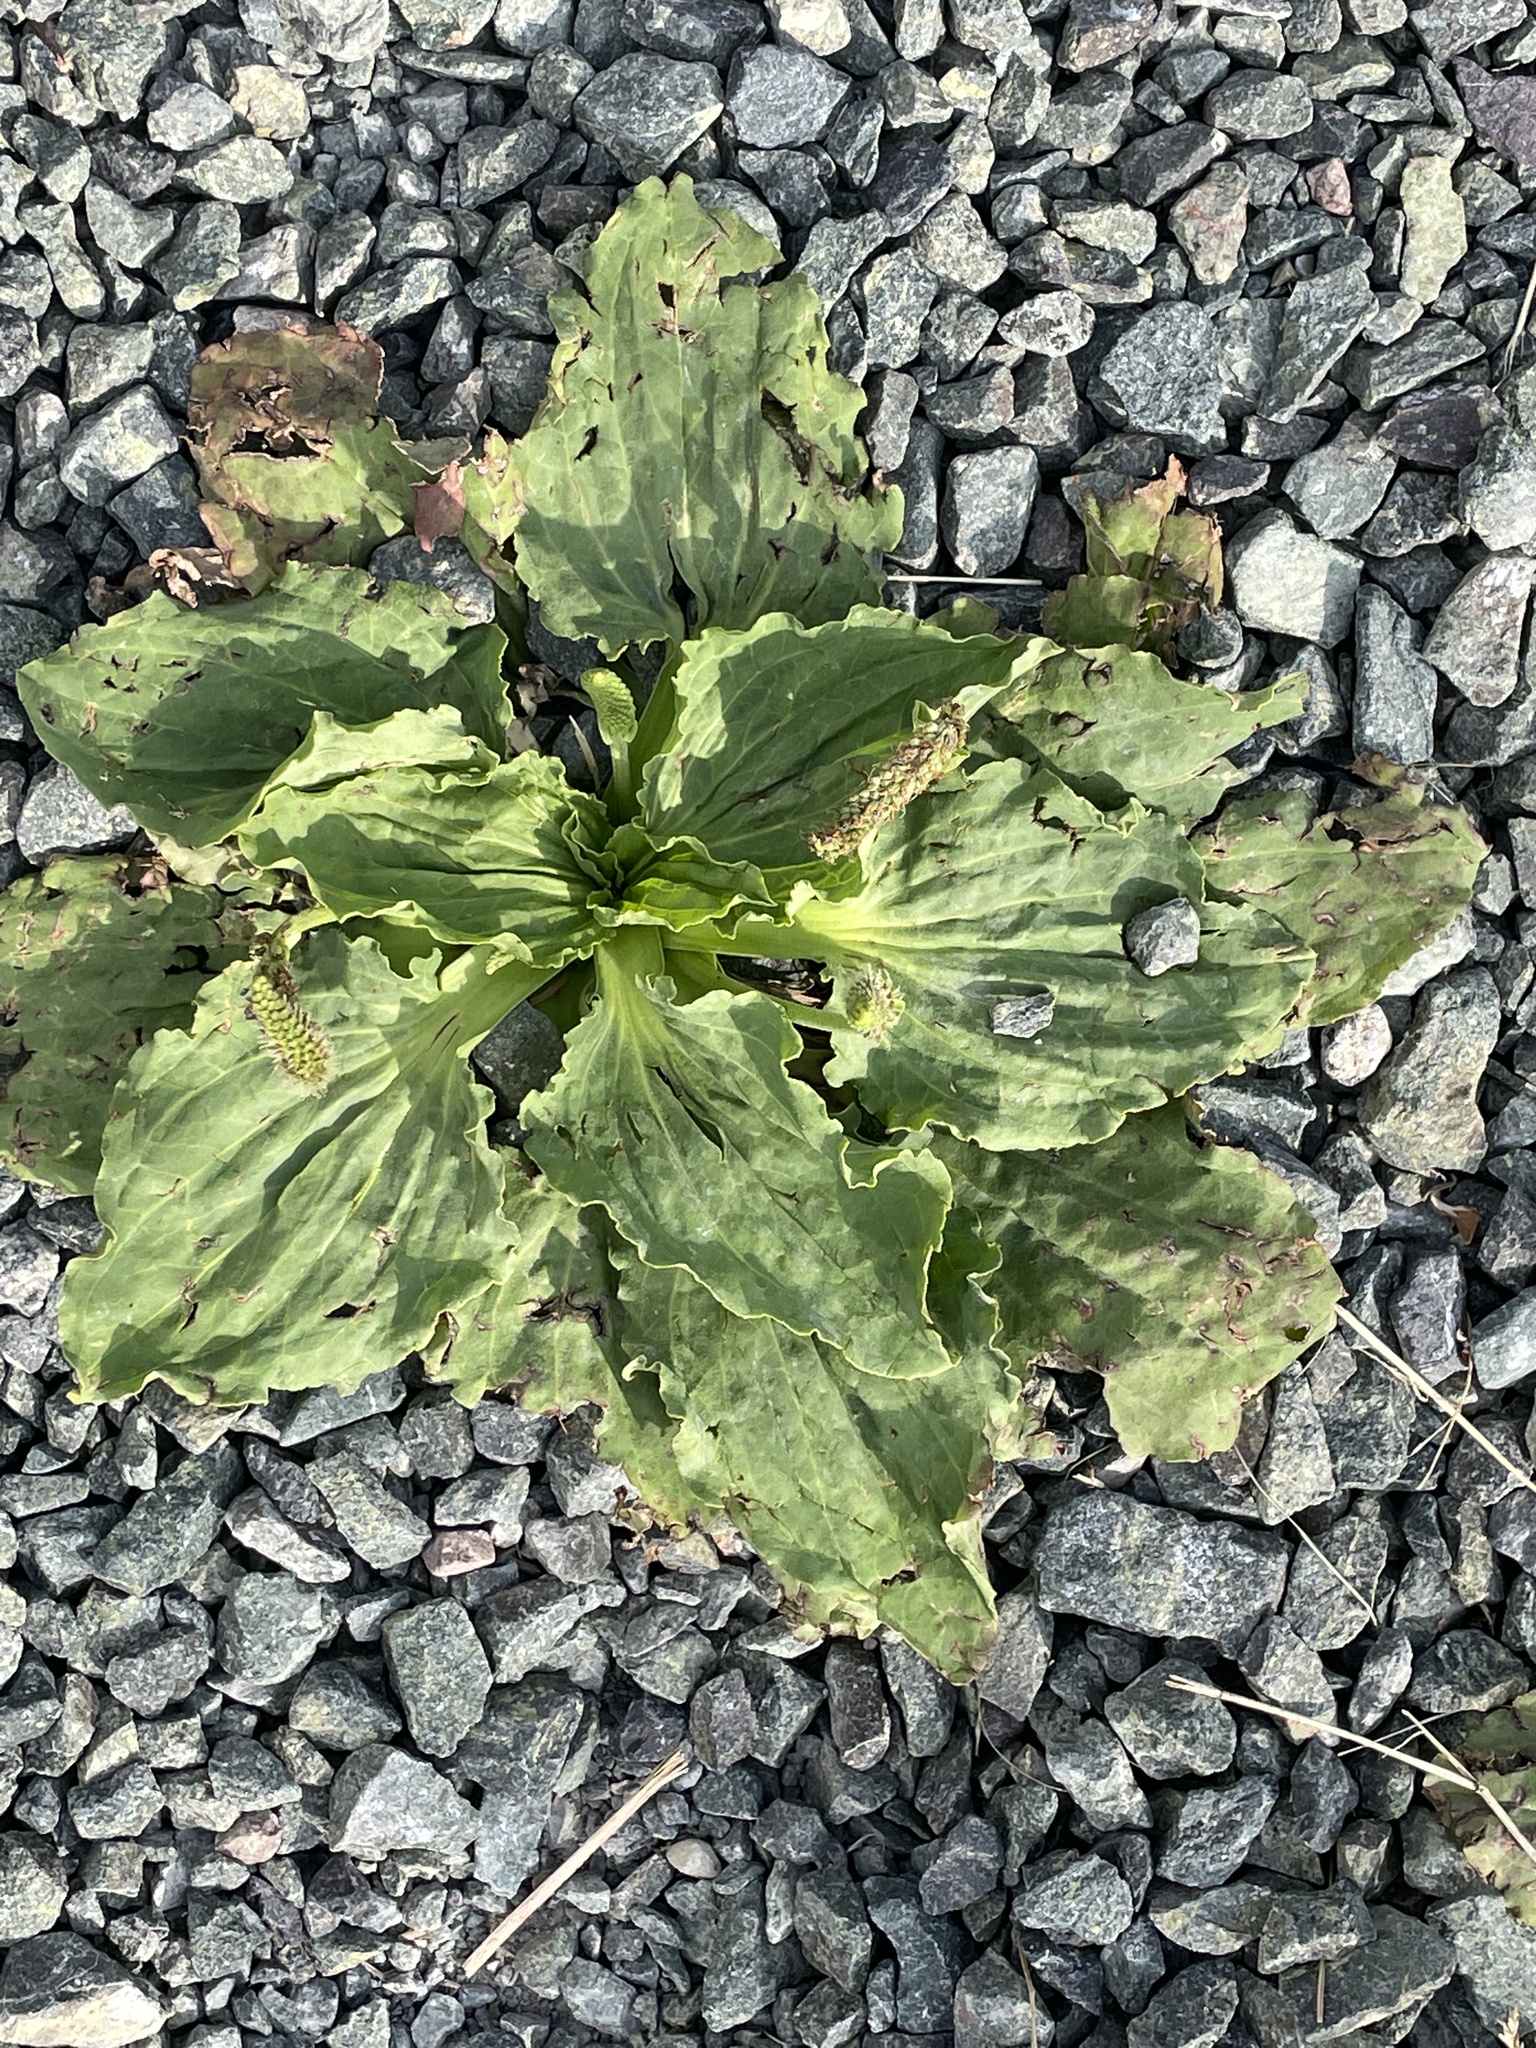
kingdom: Plantae
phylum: Tracheophyta
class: Magnoliopsida
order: Lamiales
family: Plantaginaceae
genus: Plantago
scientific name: Plantago major
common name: Common plantain
